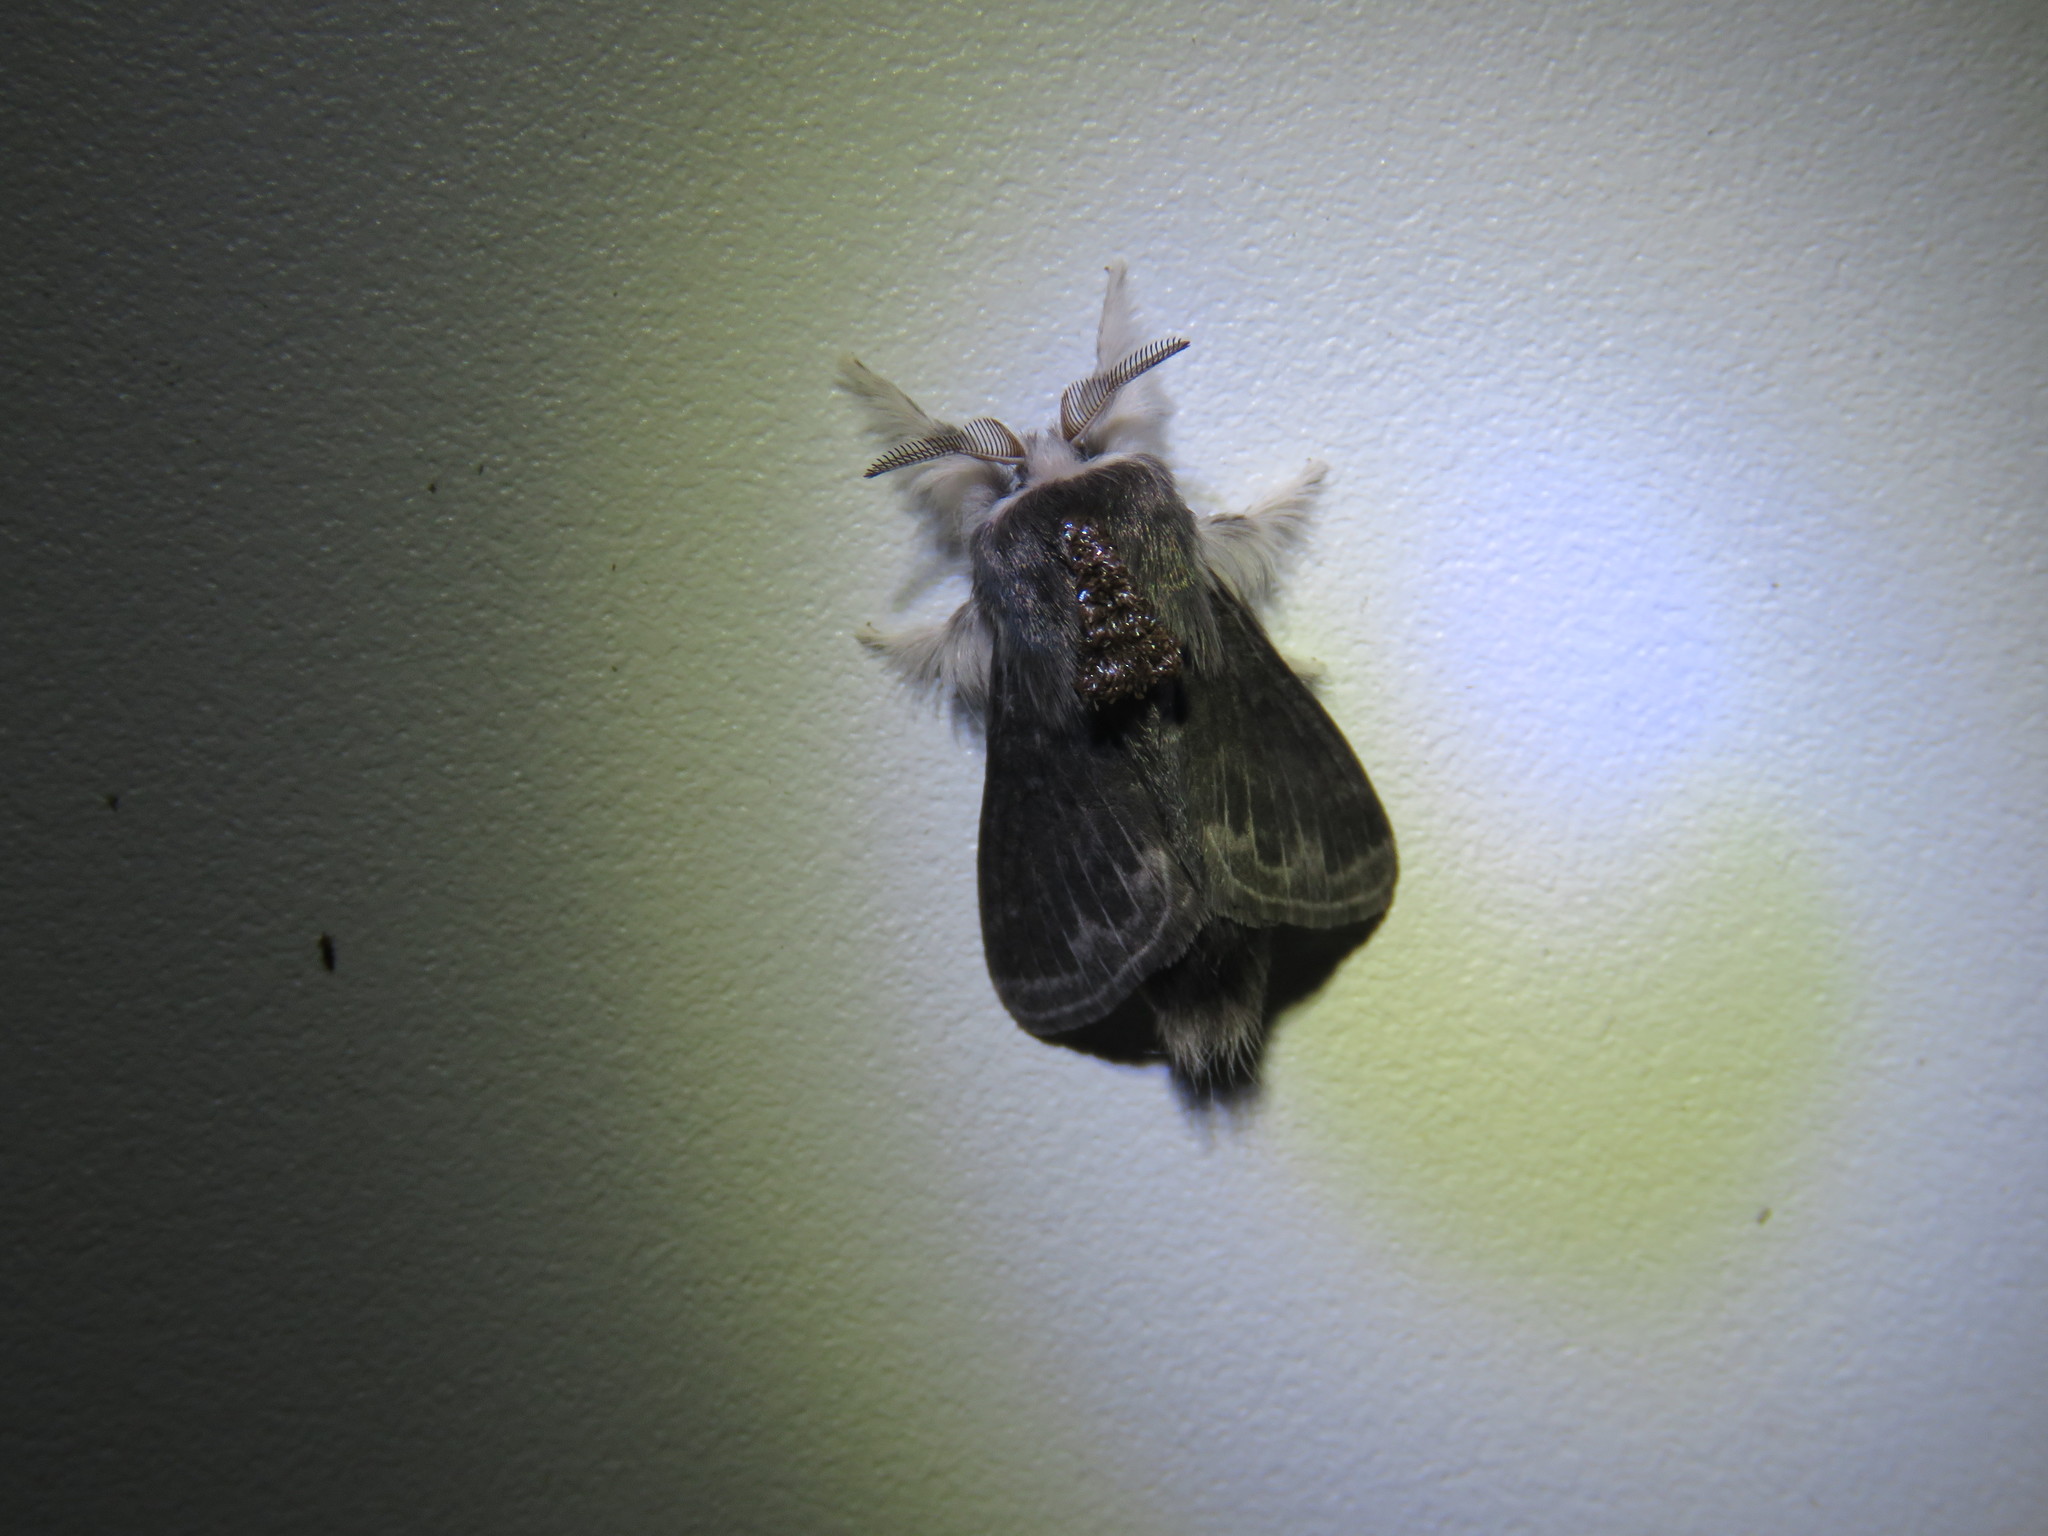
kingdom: Animalia
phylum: Arthropoda
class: Insecta
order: Lepidoptera
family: Lasiocampidae
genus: Tolype
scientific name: Tolype laricis
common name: Larch tolype moth
